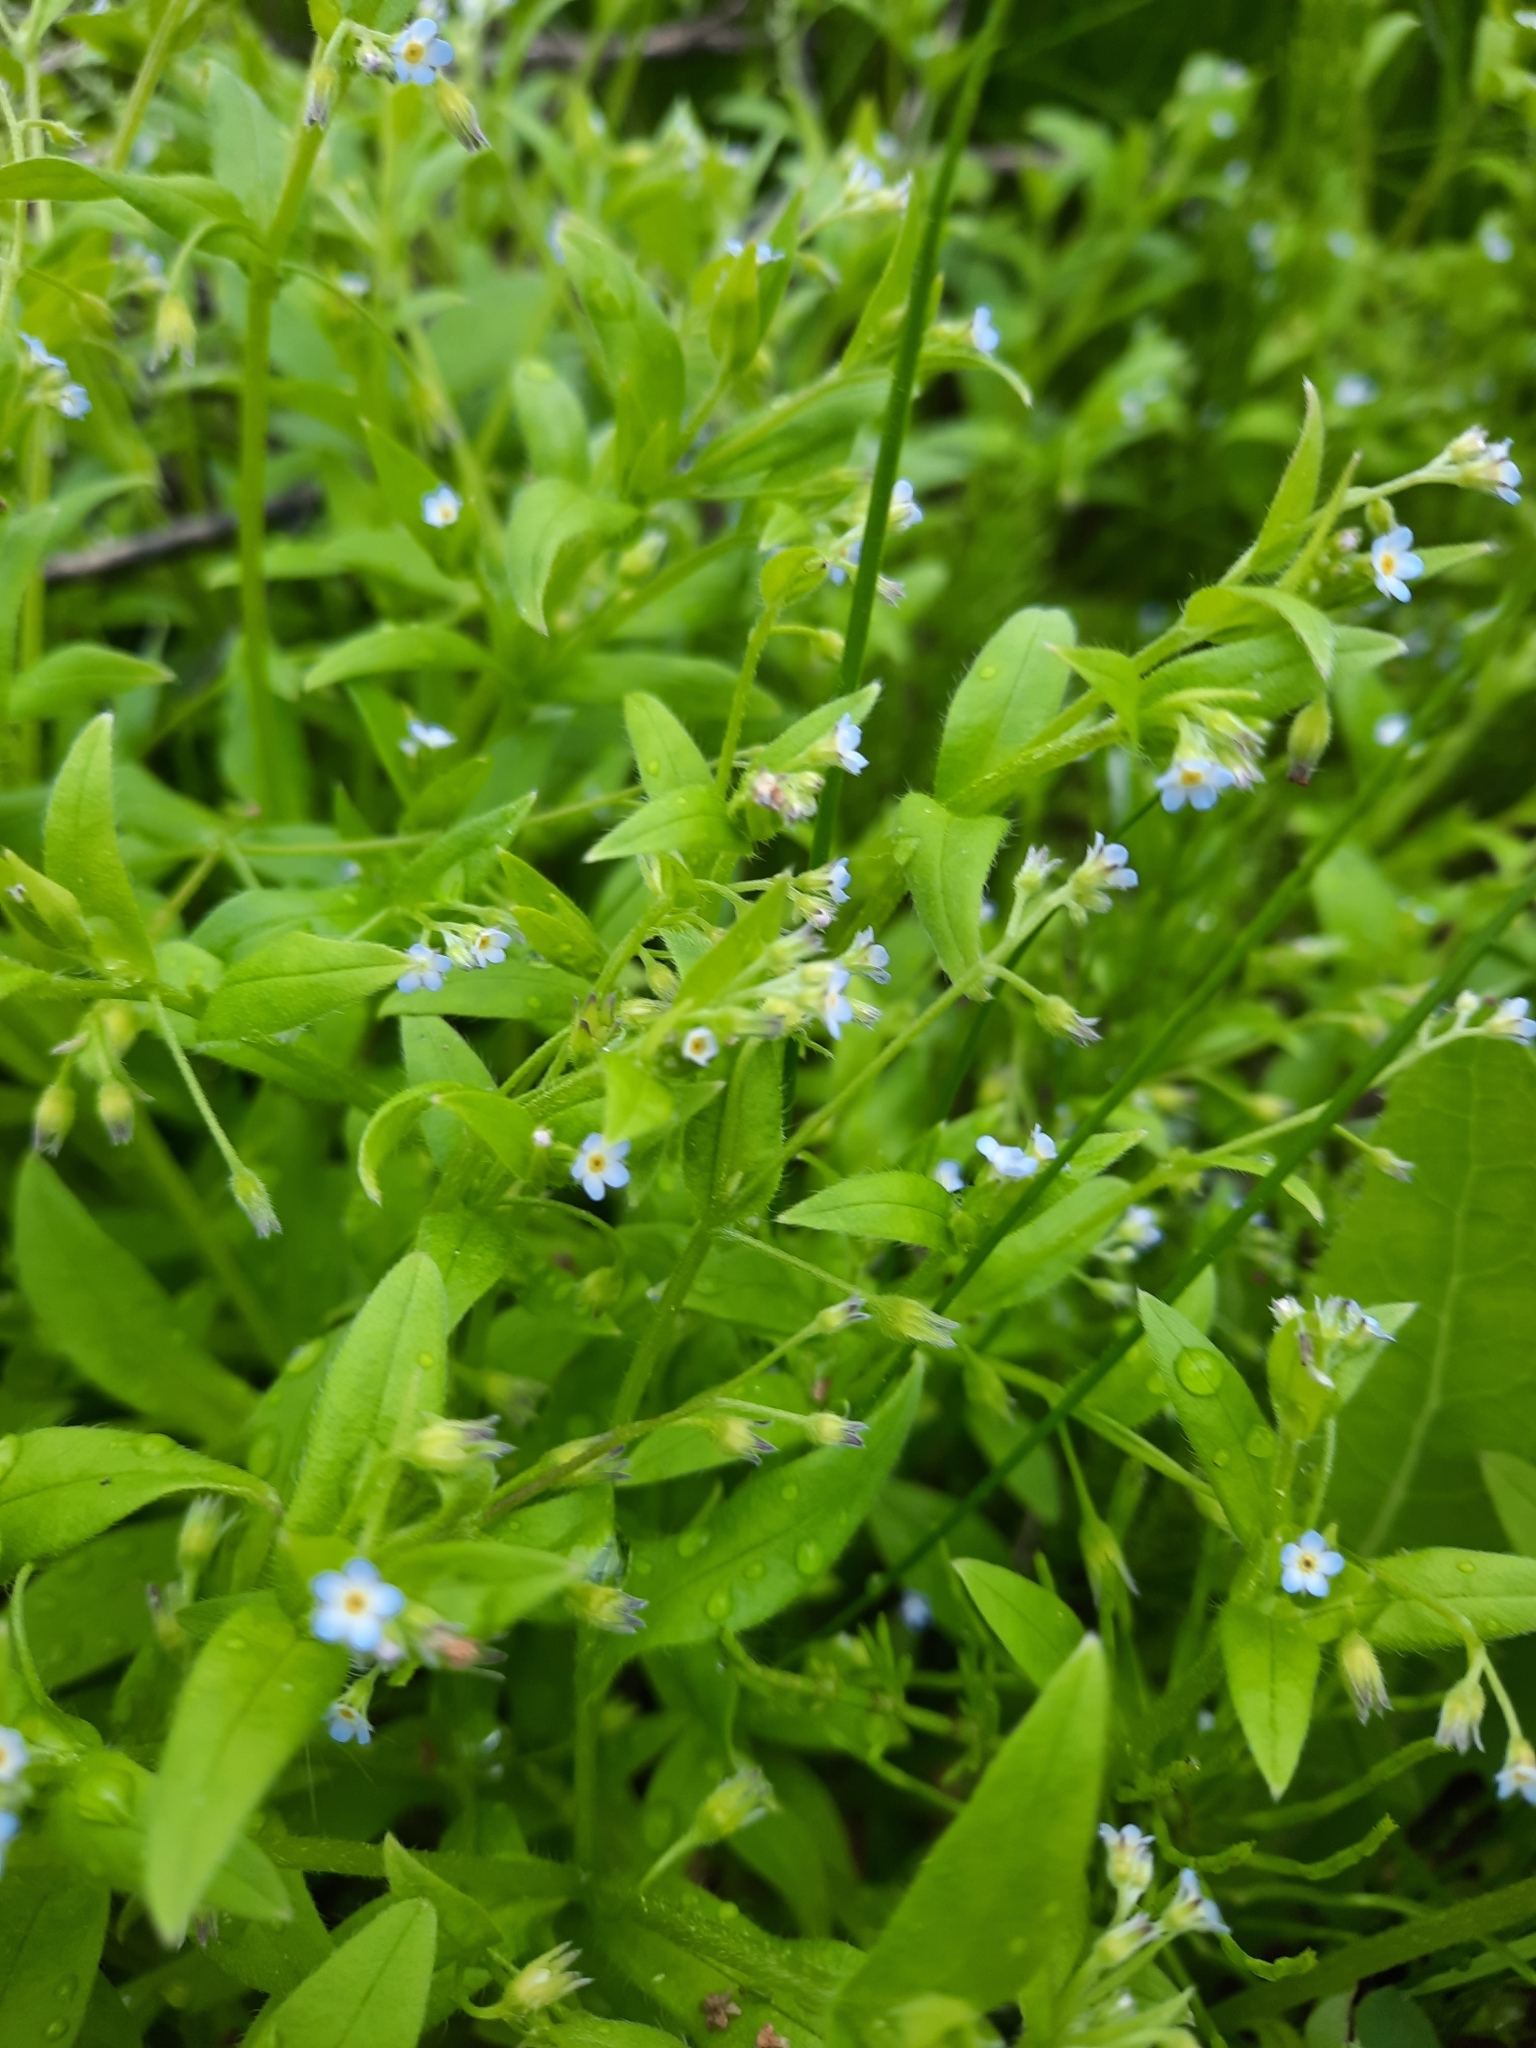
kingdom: Plantae
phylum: Tracheophyta
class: Magnoliopsida
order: Boraginales
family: Boraginaceae
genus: Myosotis
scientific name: Myosotis sparsiflora
